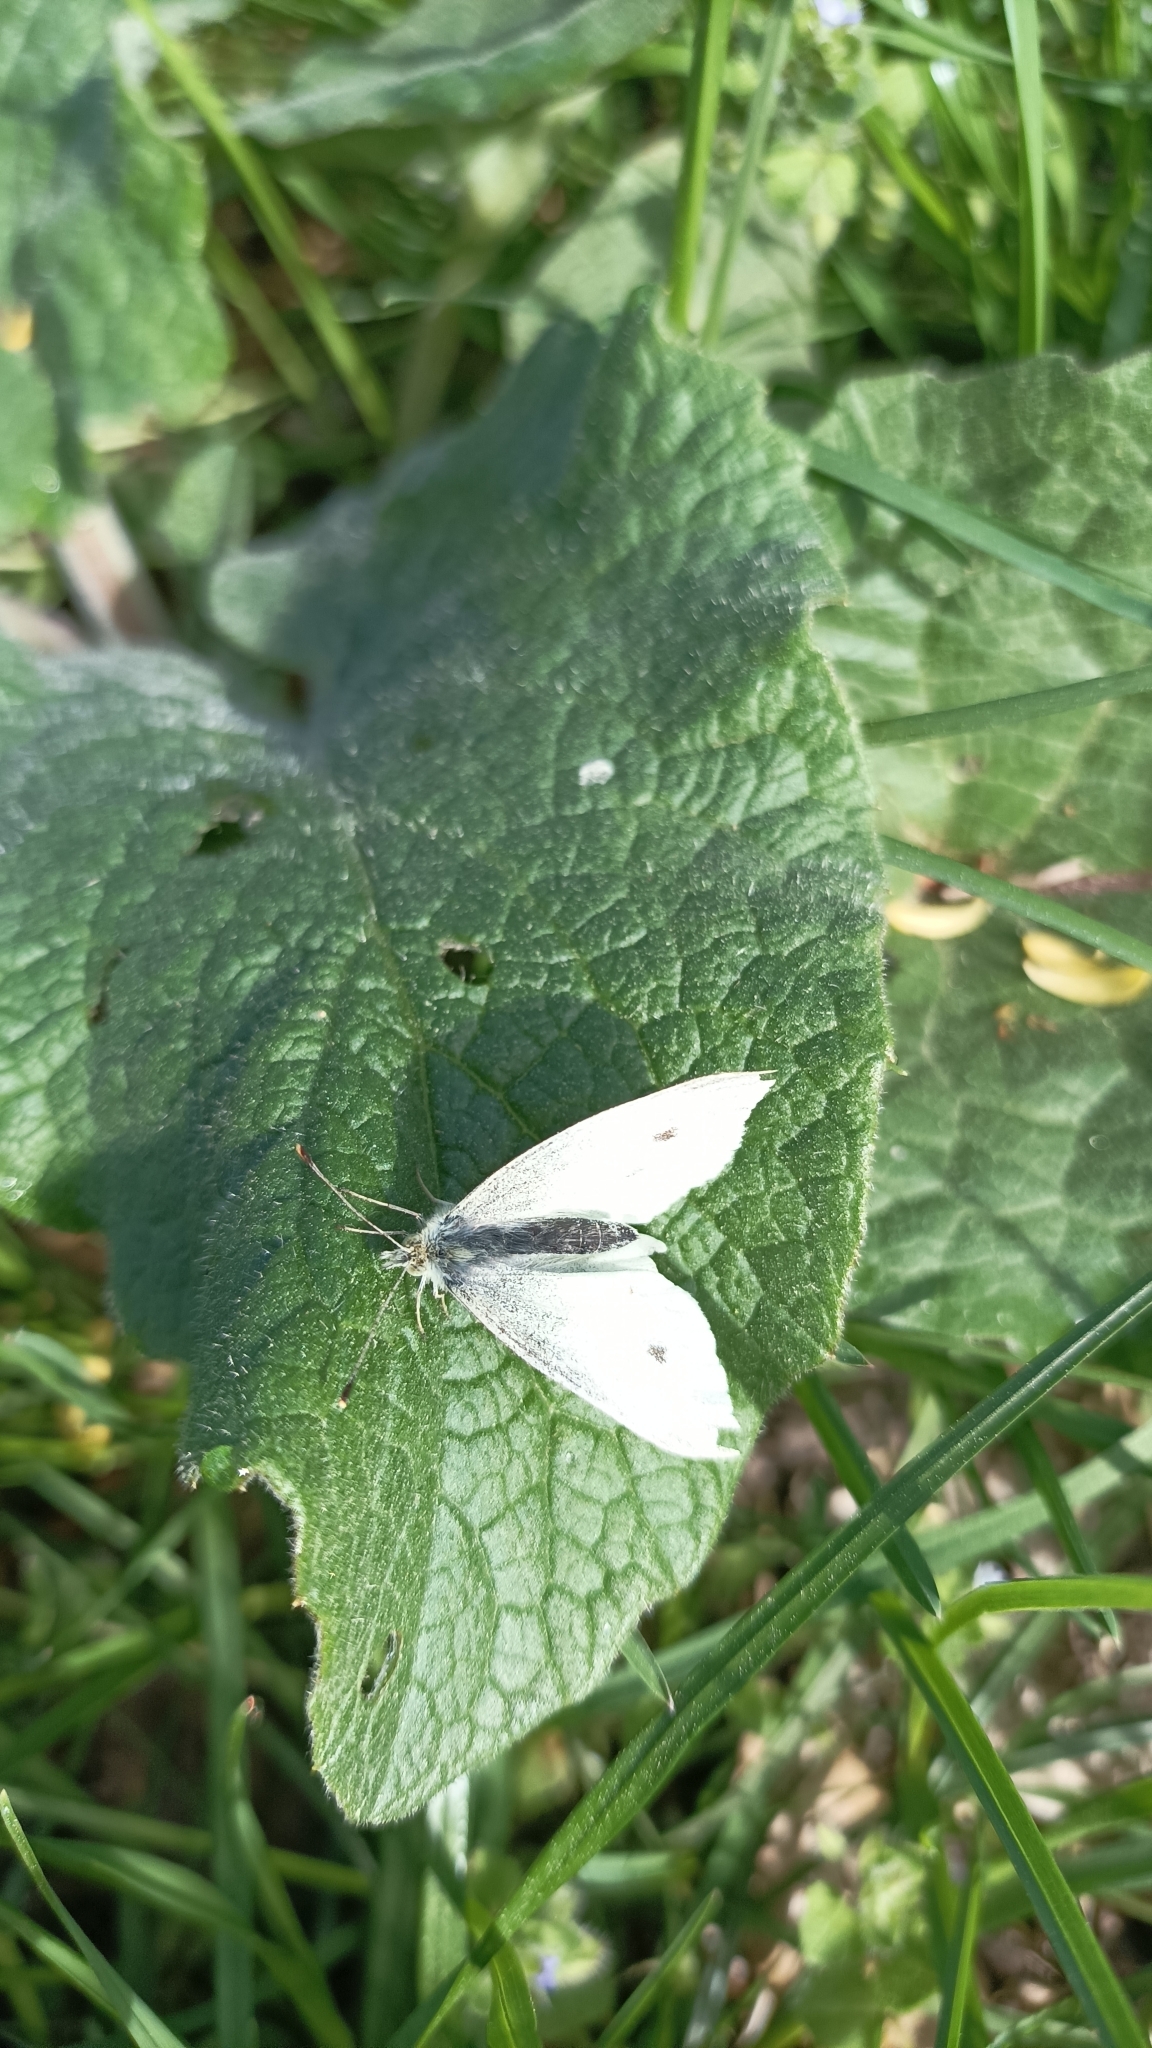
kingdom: Animalia
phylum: Arthropoda
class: Insecta
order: Lepidoptera
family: Pieridae
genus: Pieris
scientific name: Pieris rapae
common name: Small white
